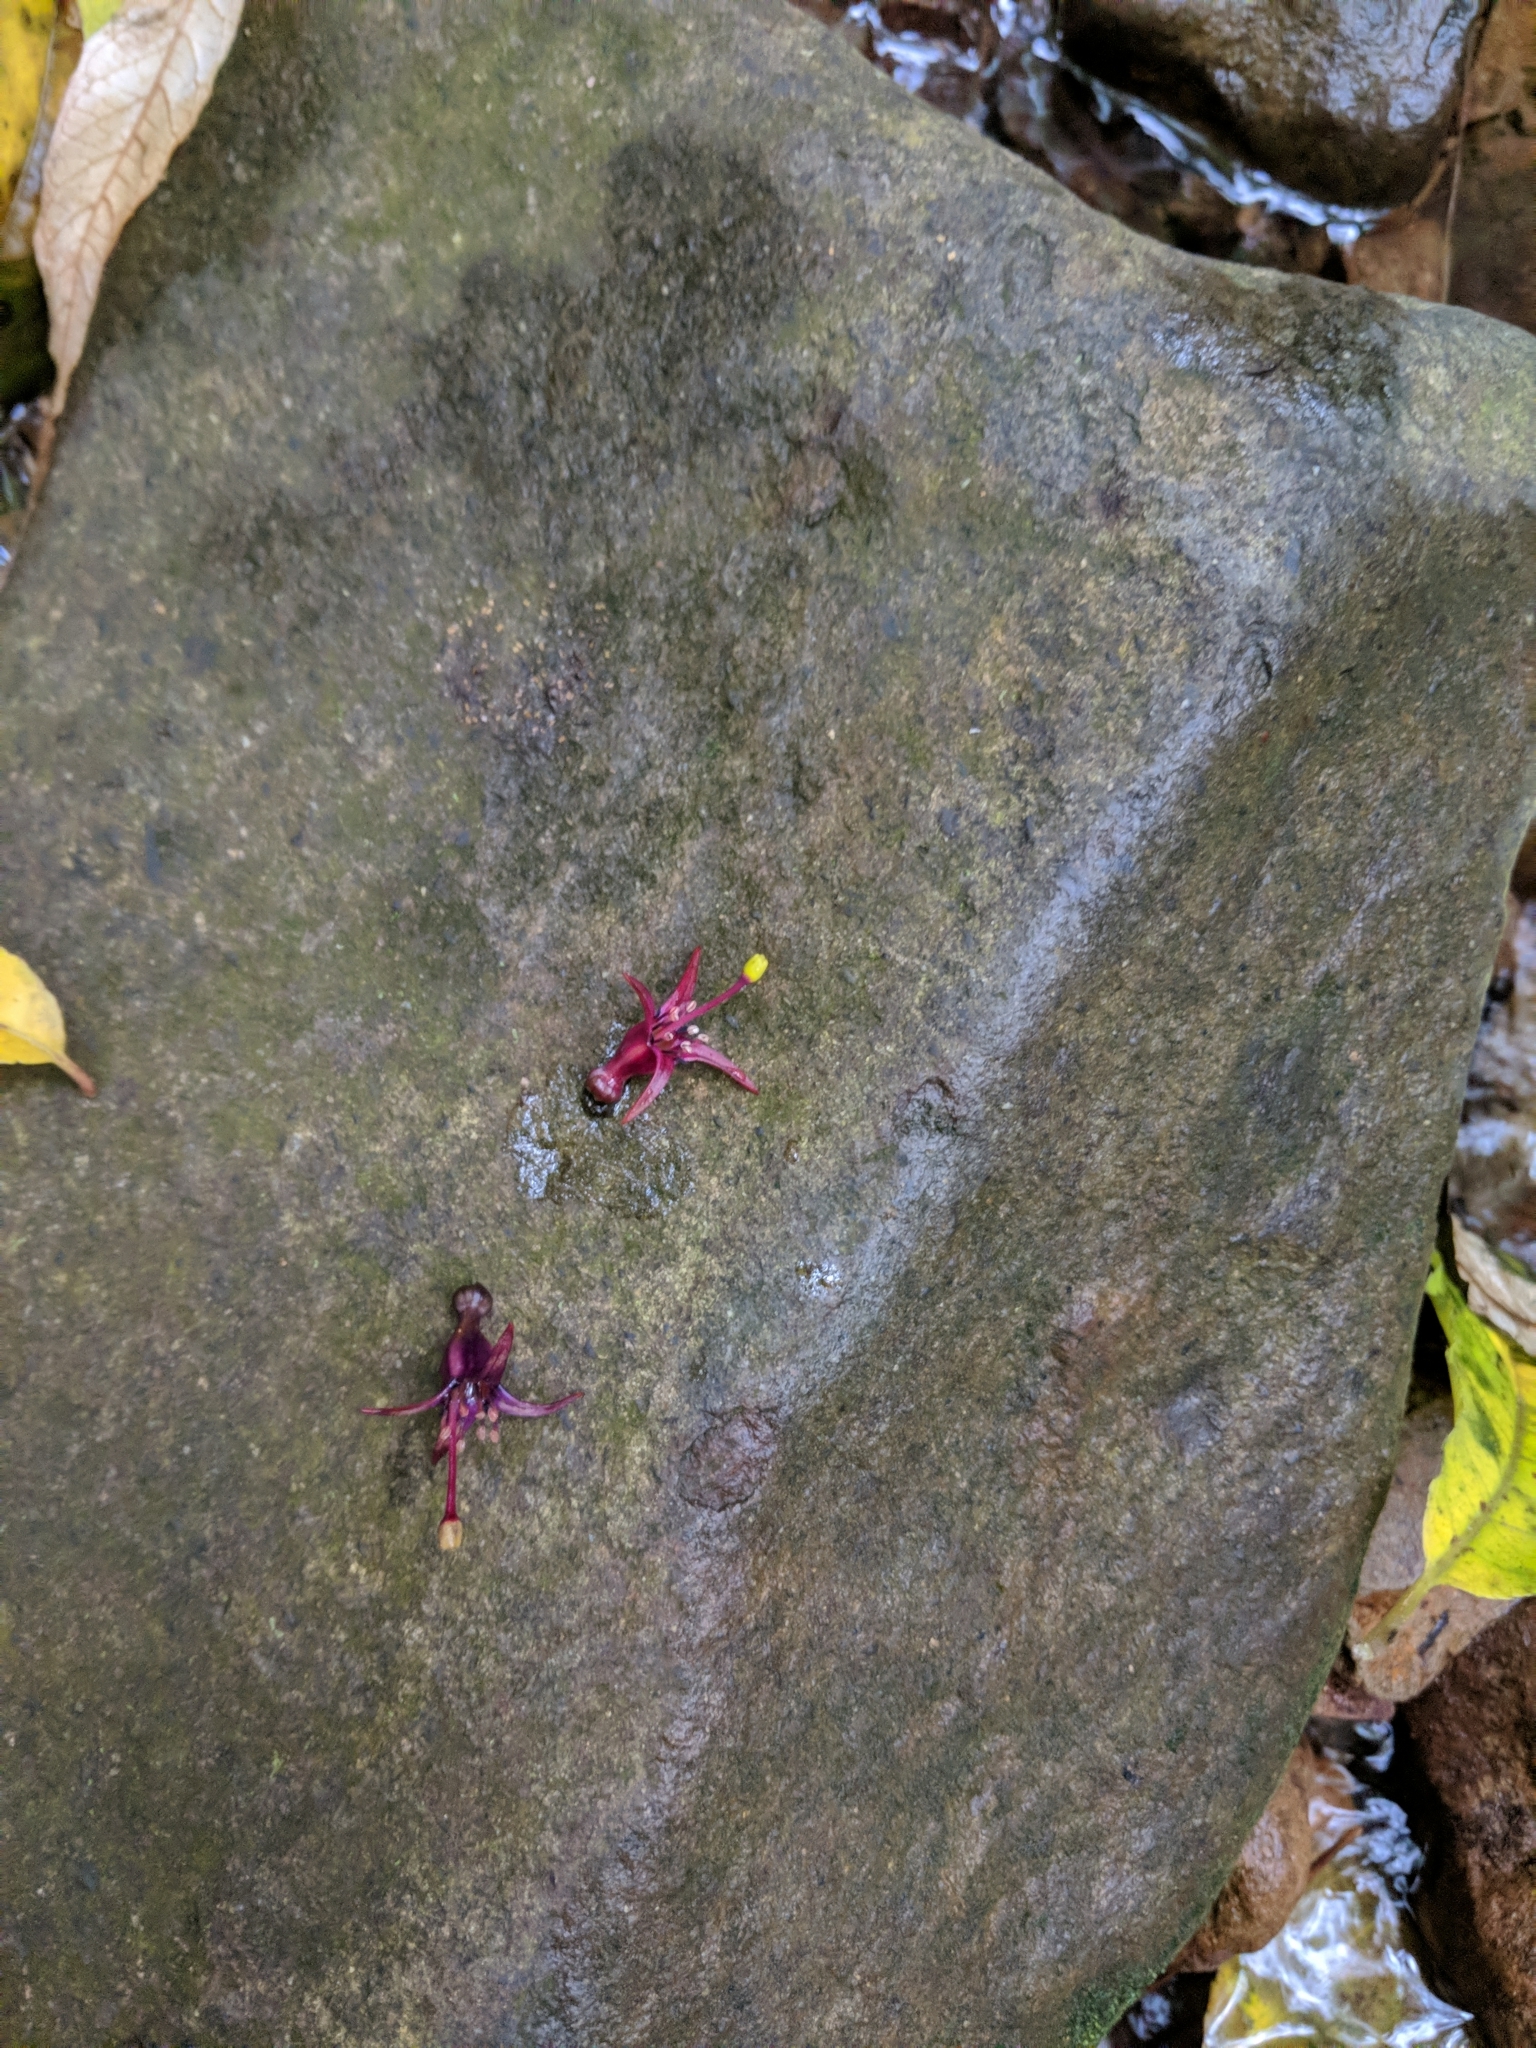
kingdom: Plantae
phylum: Tracheophyta
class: Magnoliopsida
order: Myrtales
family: Onagraceae
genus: Fuchsia
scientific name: Fuchsia excorticata
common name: Tree fuchsia
